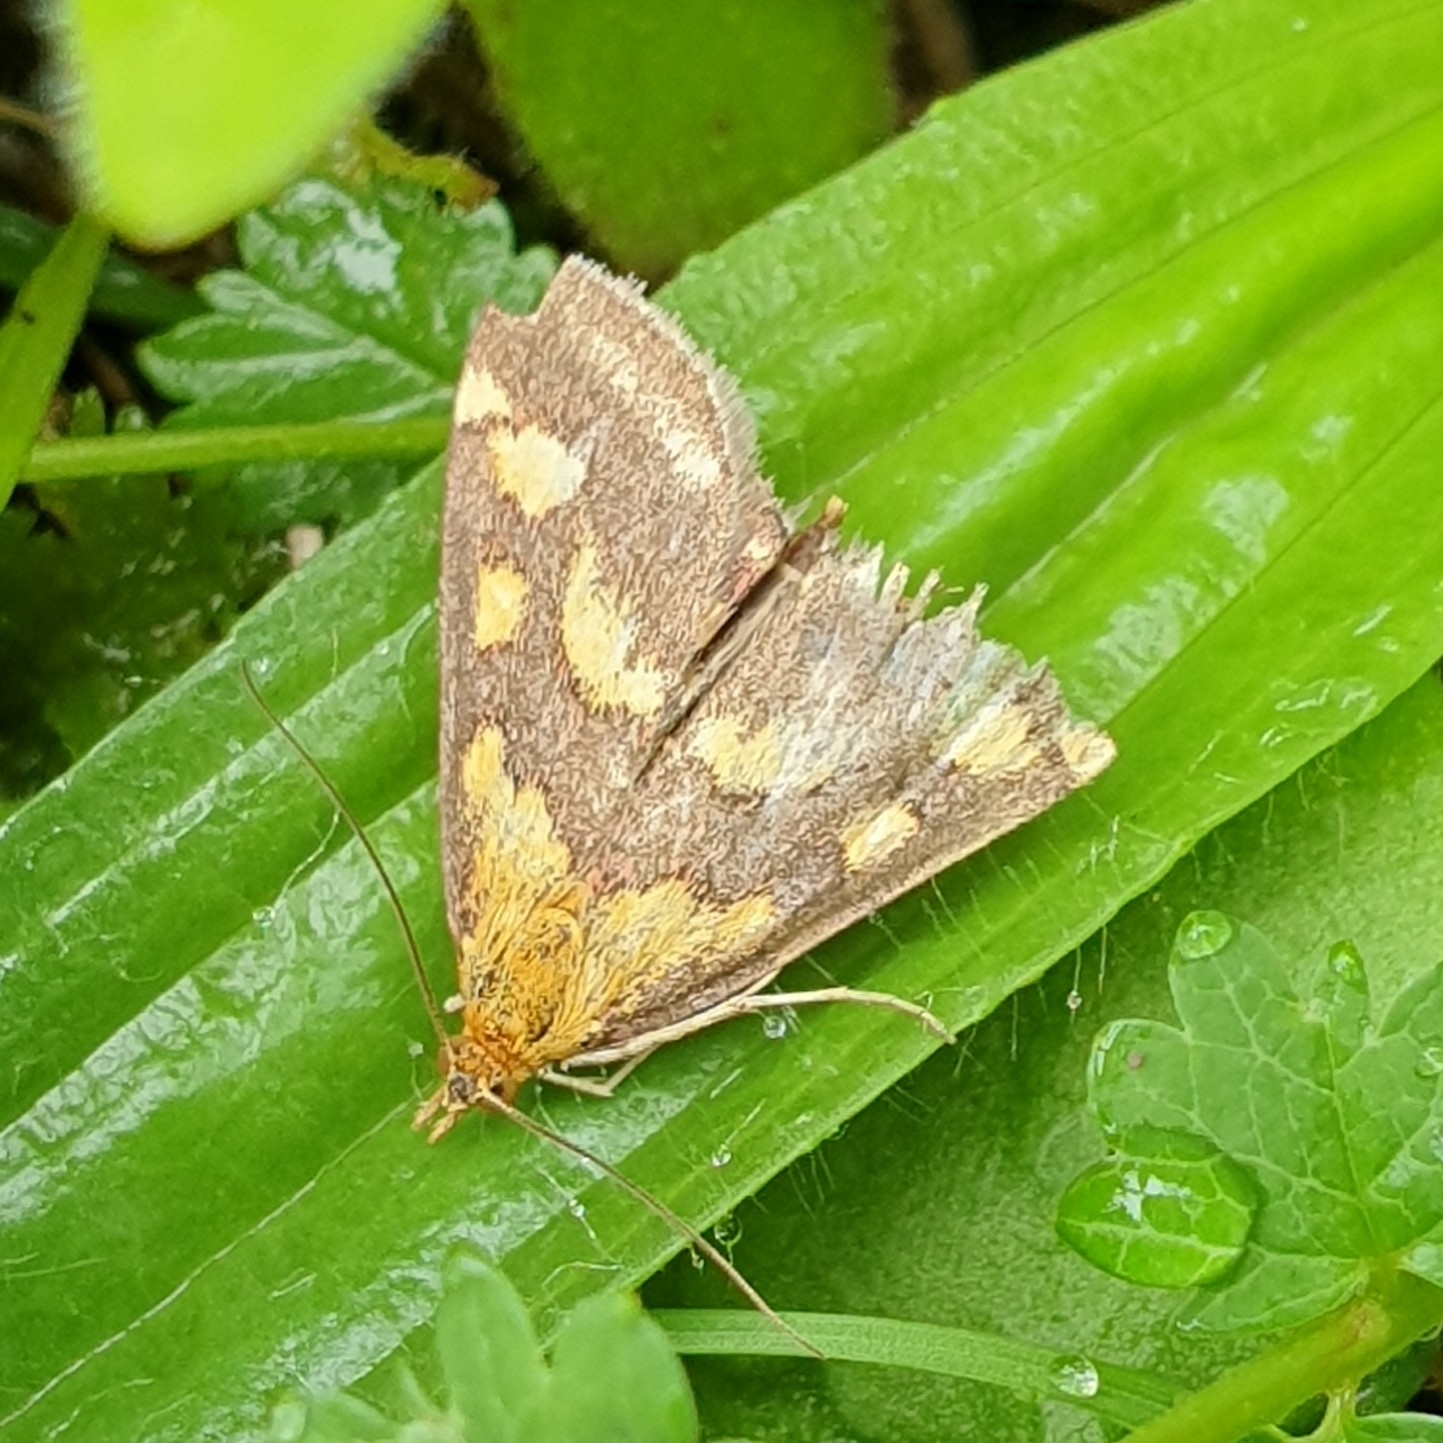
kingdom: Animalia
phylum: Arthropoda
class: Insecta
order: Lepidoptera
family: Crambidae
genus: Pyrausta
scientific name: Pyrausta purpuralis
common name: Common purple & gold
